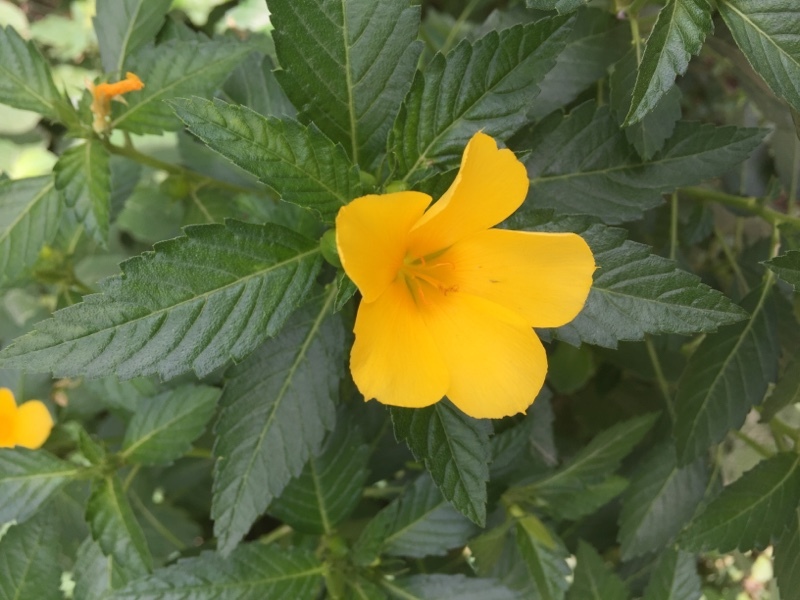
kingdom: Plantae
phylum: Tracheophyta
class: Magnoliopsida
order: Malpighiales
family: Turneraceae
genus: Turnera
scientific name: Turnera ulmifolia
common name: Ramgoat dashalong
